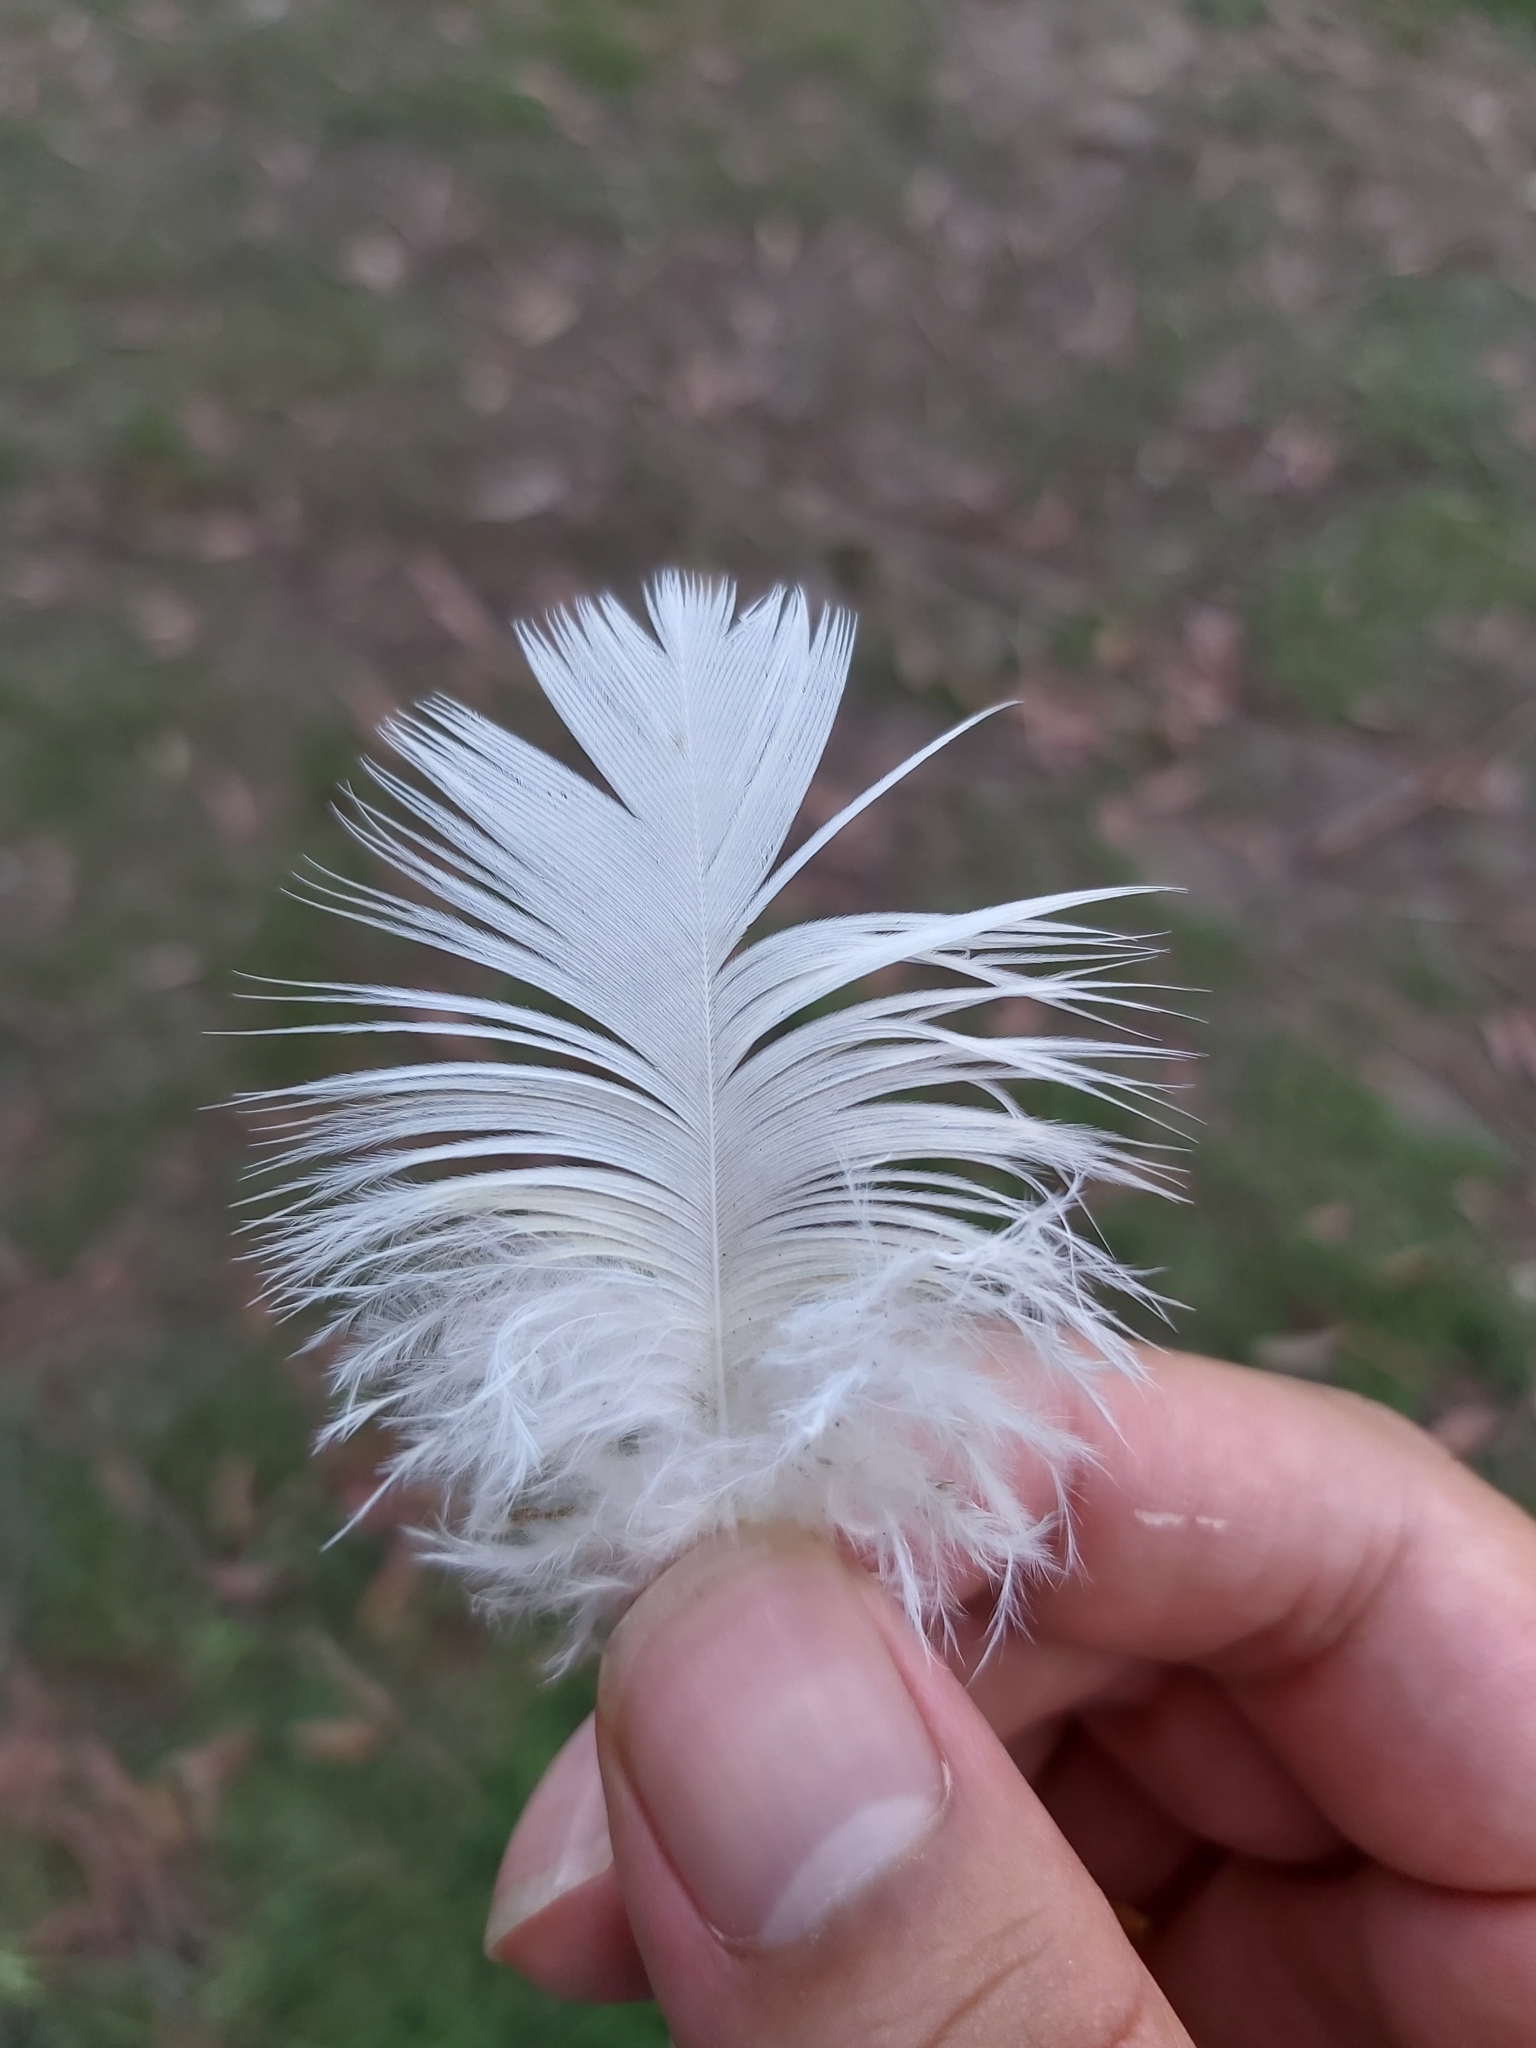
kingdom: Animalia
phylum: Chordata
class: Aves
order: Psittaciformes
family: Psittacidae
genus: Cacatua
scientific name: Cacatua galerita
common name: Sulphur-crested cockatoo
